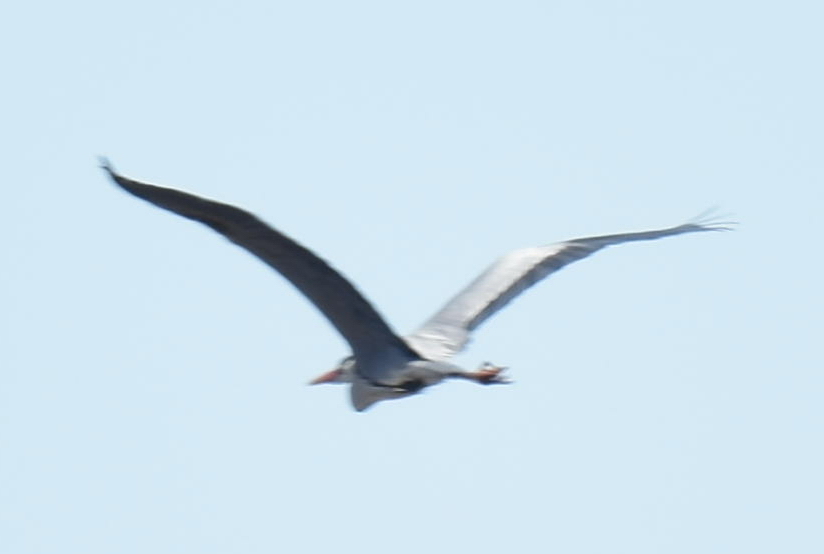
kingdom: Animalia
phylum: Chordata
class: Aves
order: Pelecaniformes
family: Ardeidae
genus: Ardea
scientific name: Ardea cinerea
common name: Grey heron
